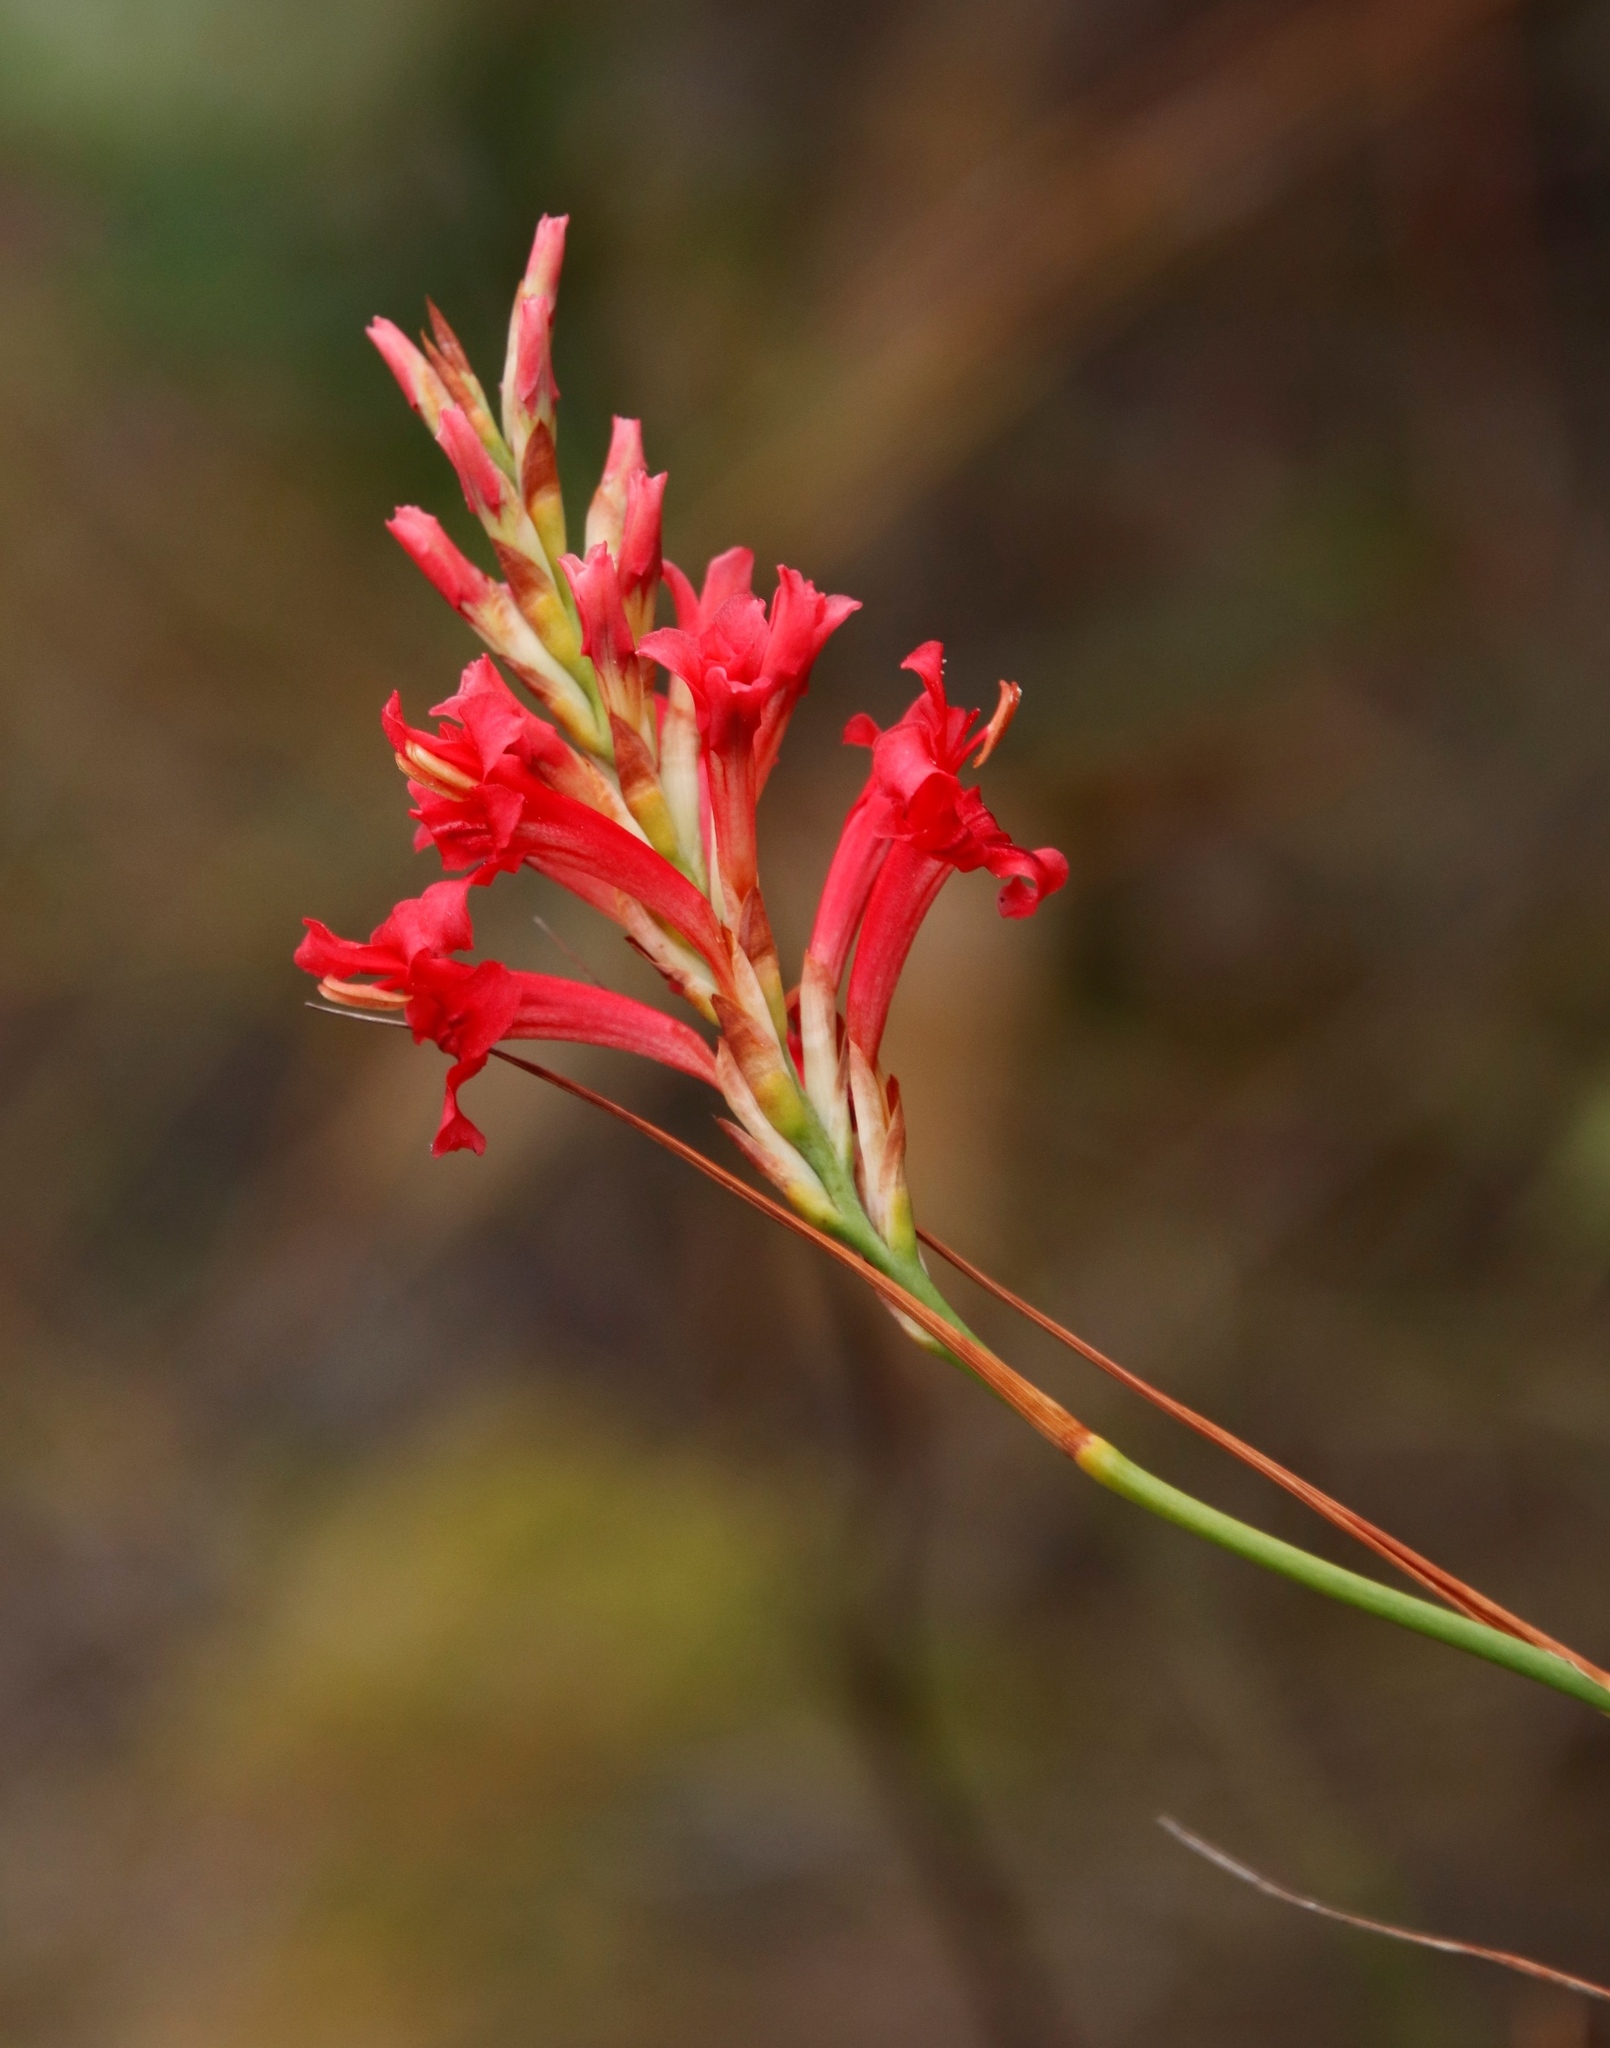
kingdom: Plantae
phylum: Tracheophyta
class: Liliopsida
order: Asparagales
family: Iridaceae
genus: Tritoniopsis
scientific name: Tritoniopsis triticea
